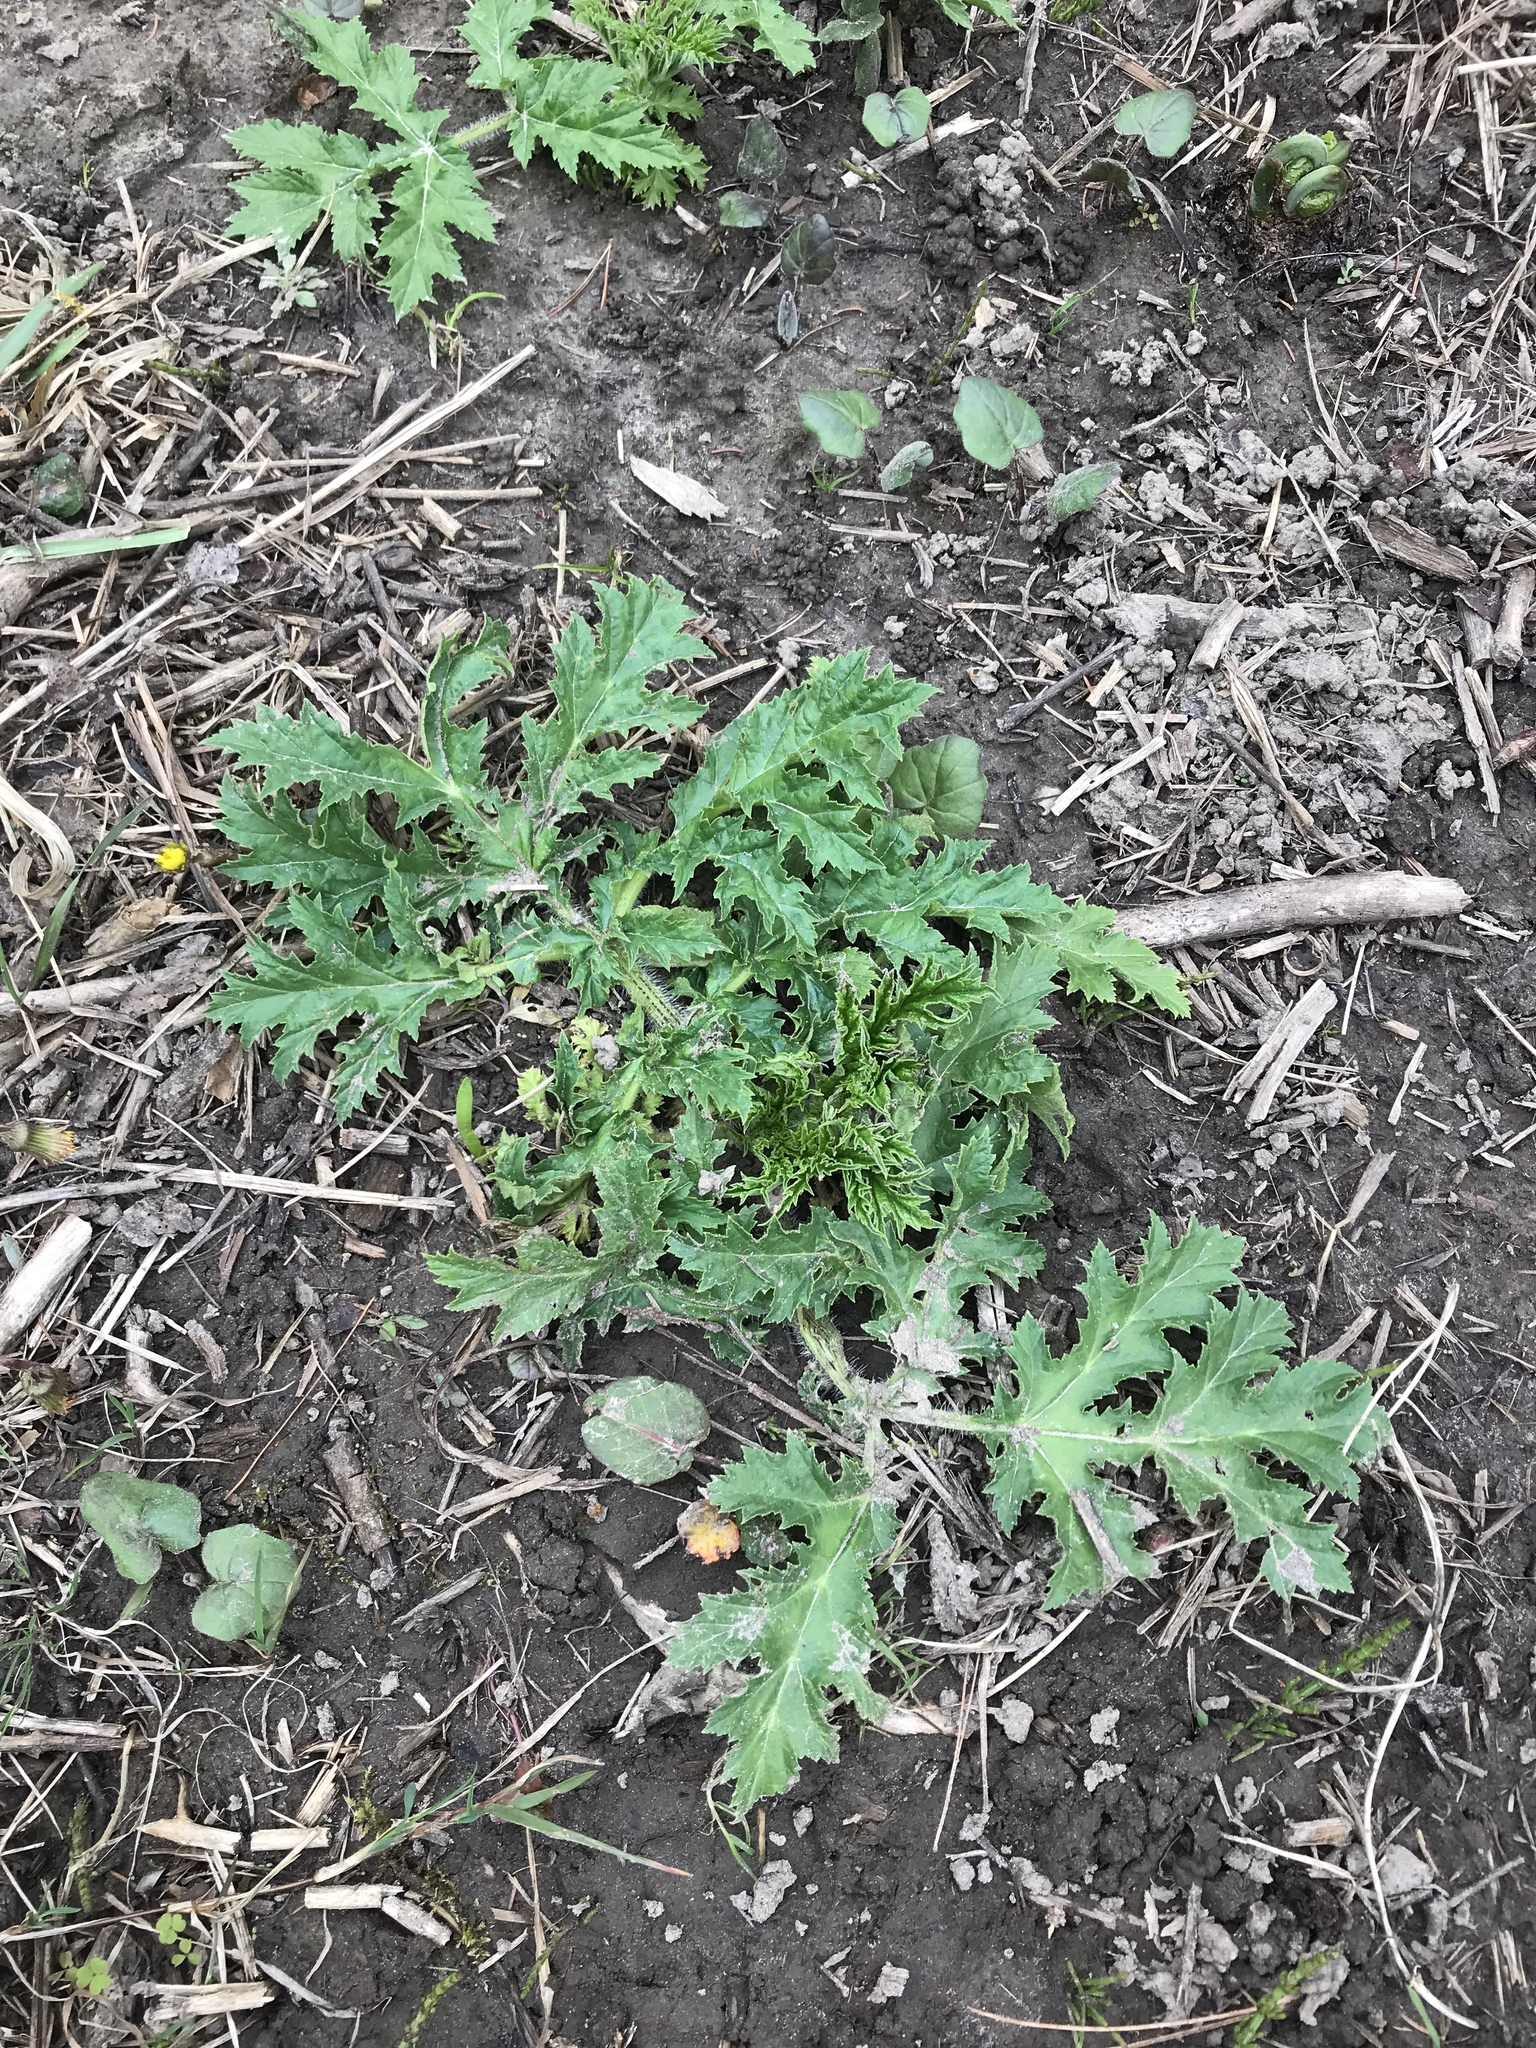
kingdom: Plantae
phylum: Tracheophyta
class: Magnoliopsida
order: Apiales
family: Apiaceae
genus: Heracleum
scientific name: Heracleum mantegazzianum
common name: Giant hogweed
